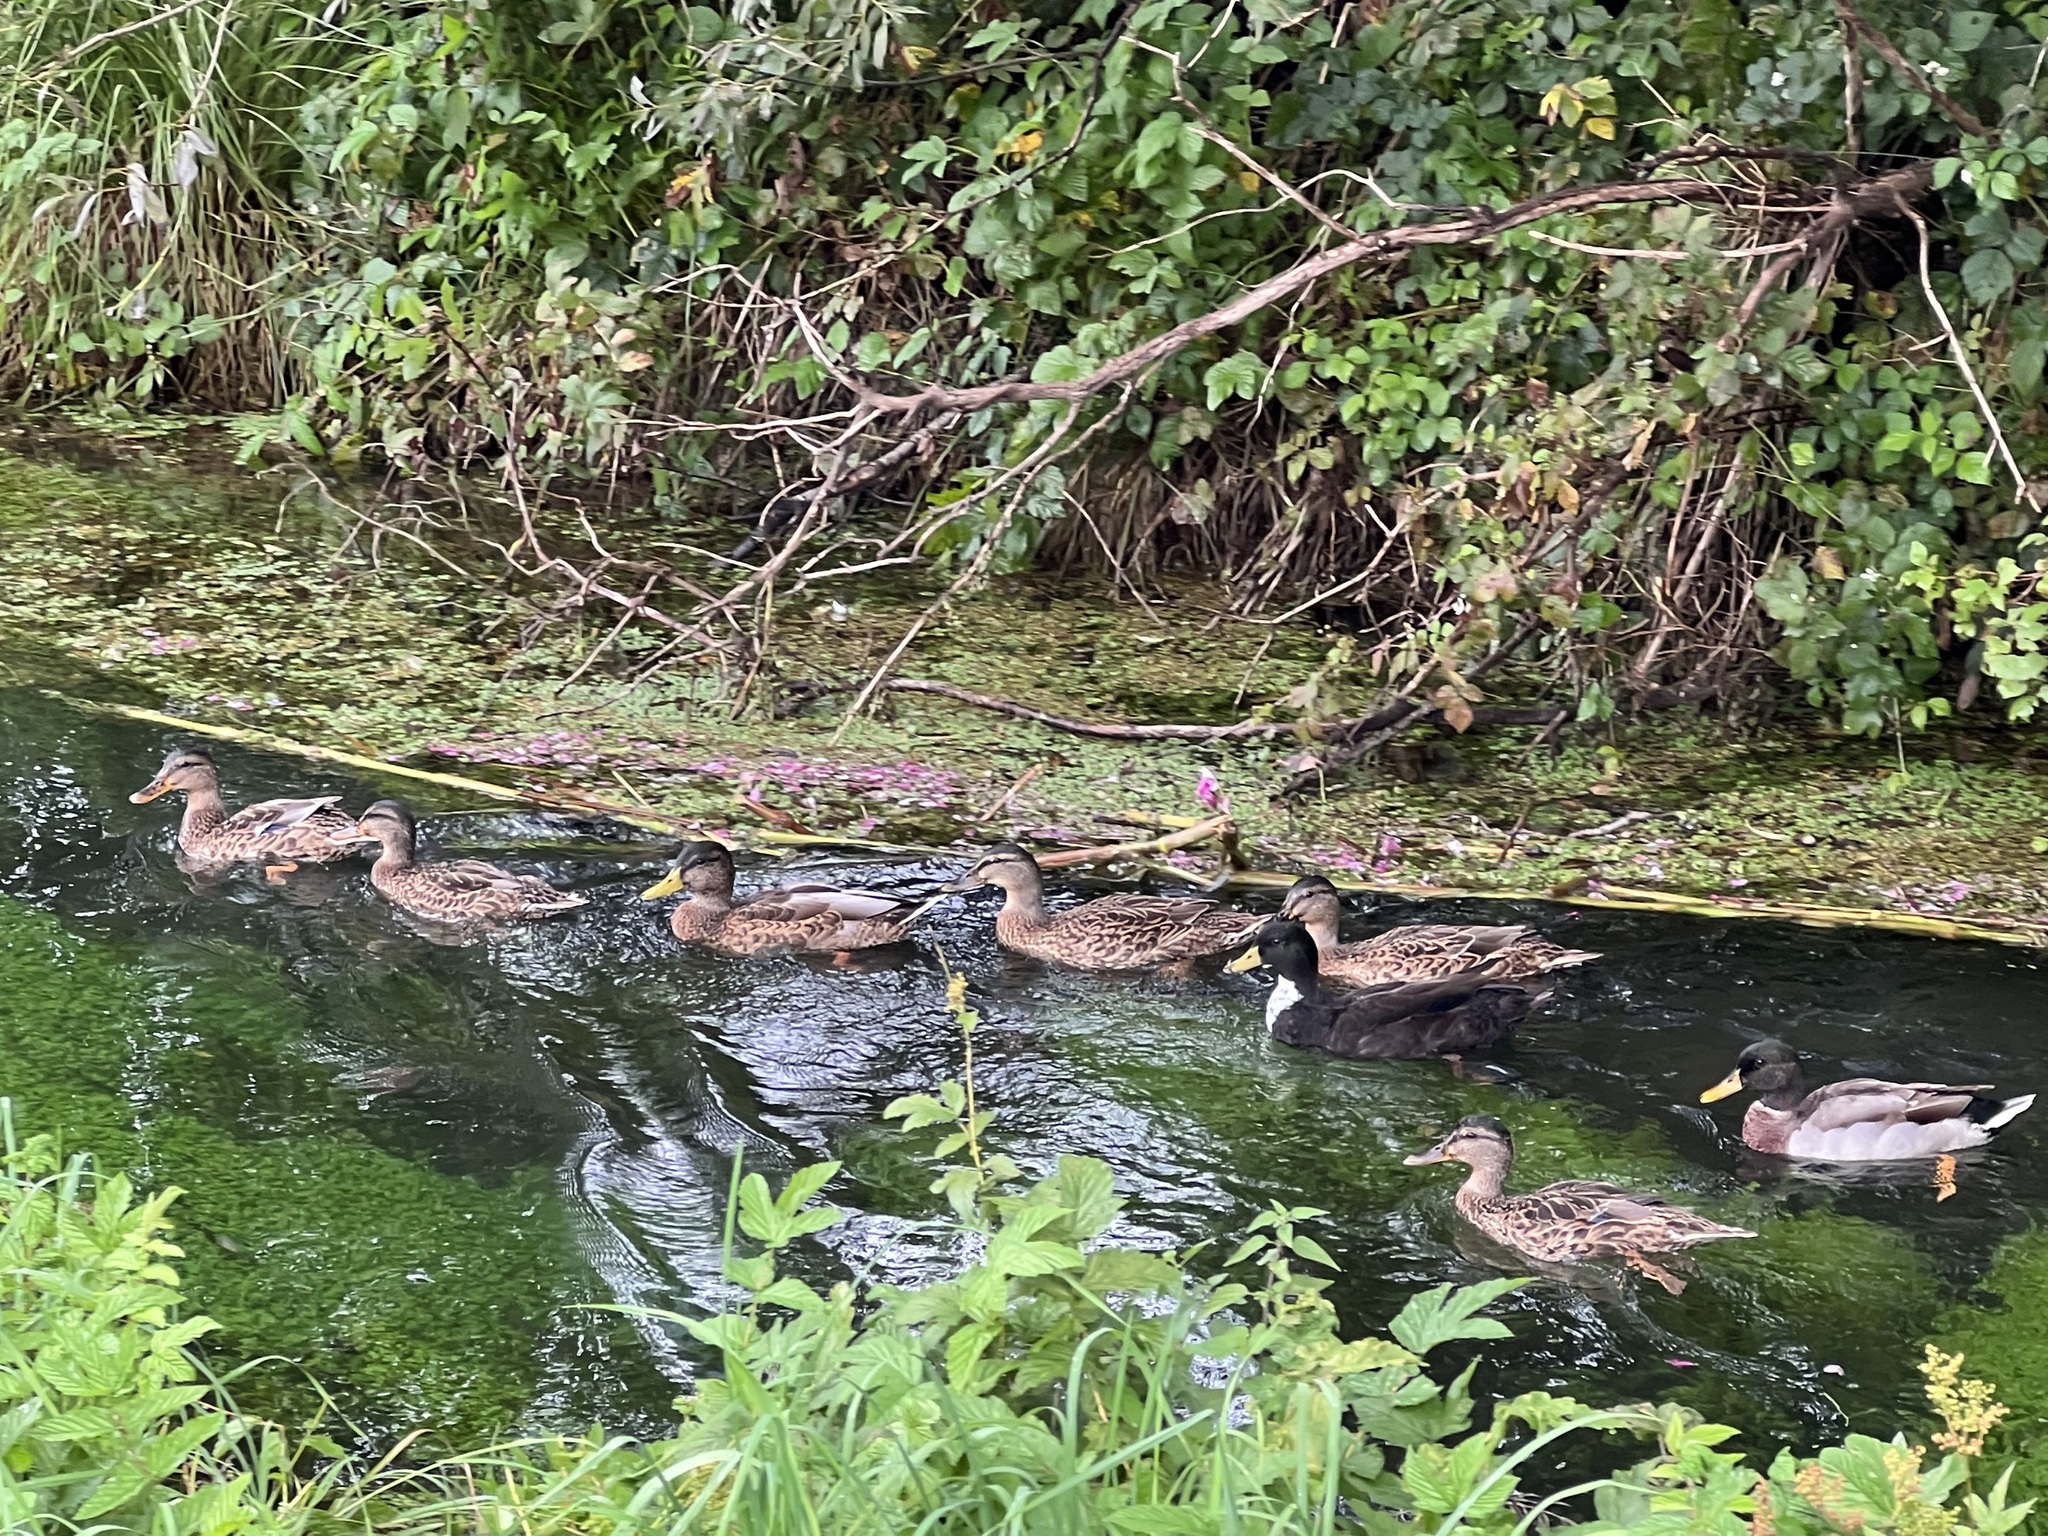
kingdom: Animalia
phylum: Chordata
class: Aves
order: Anseriformes
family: Anatidae
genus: Anas
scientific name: Anas platyrhynchos
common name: Mallard
